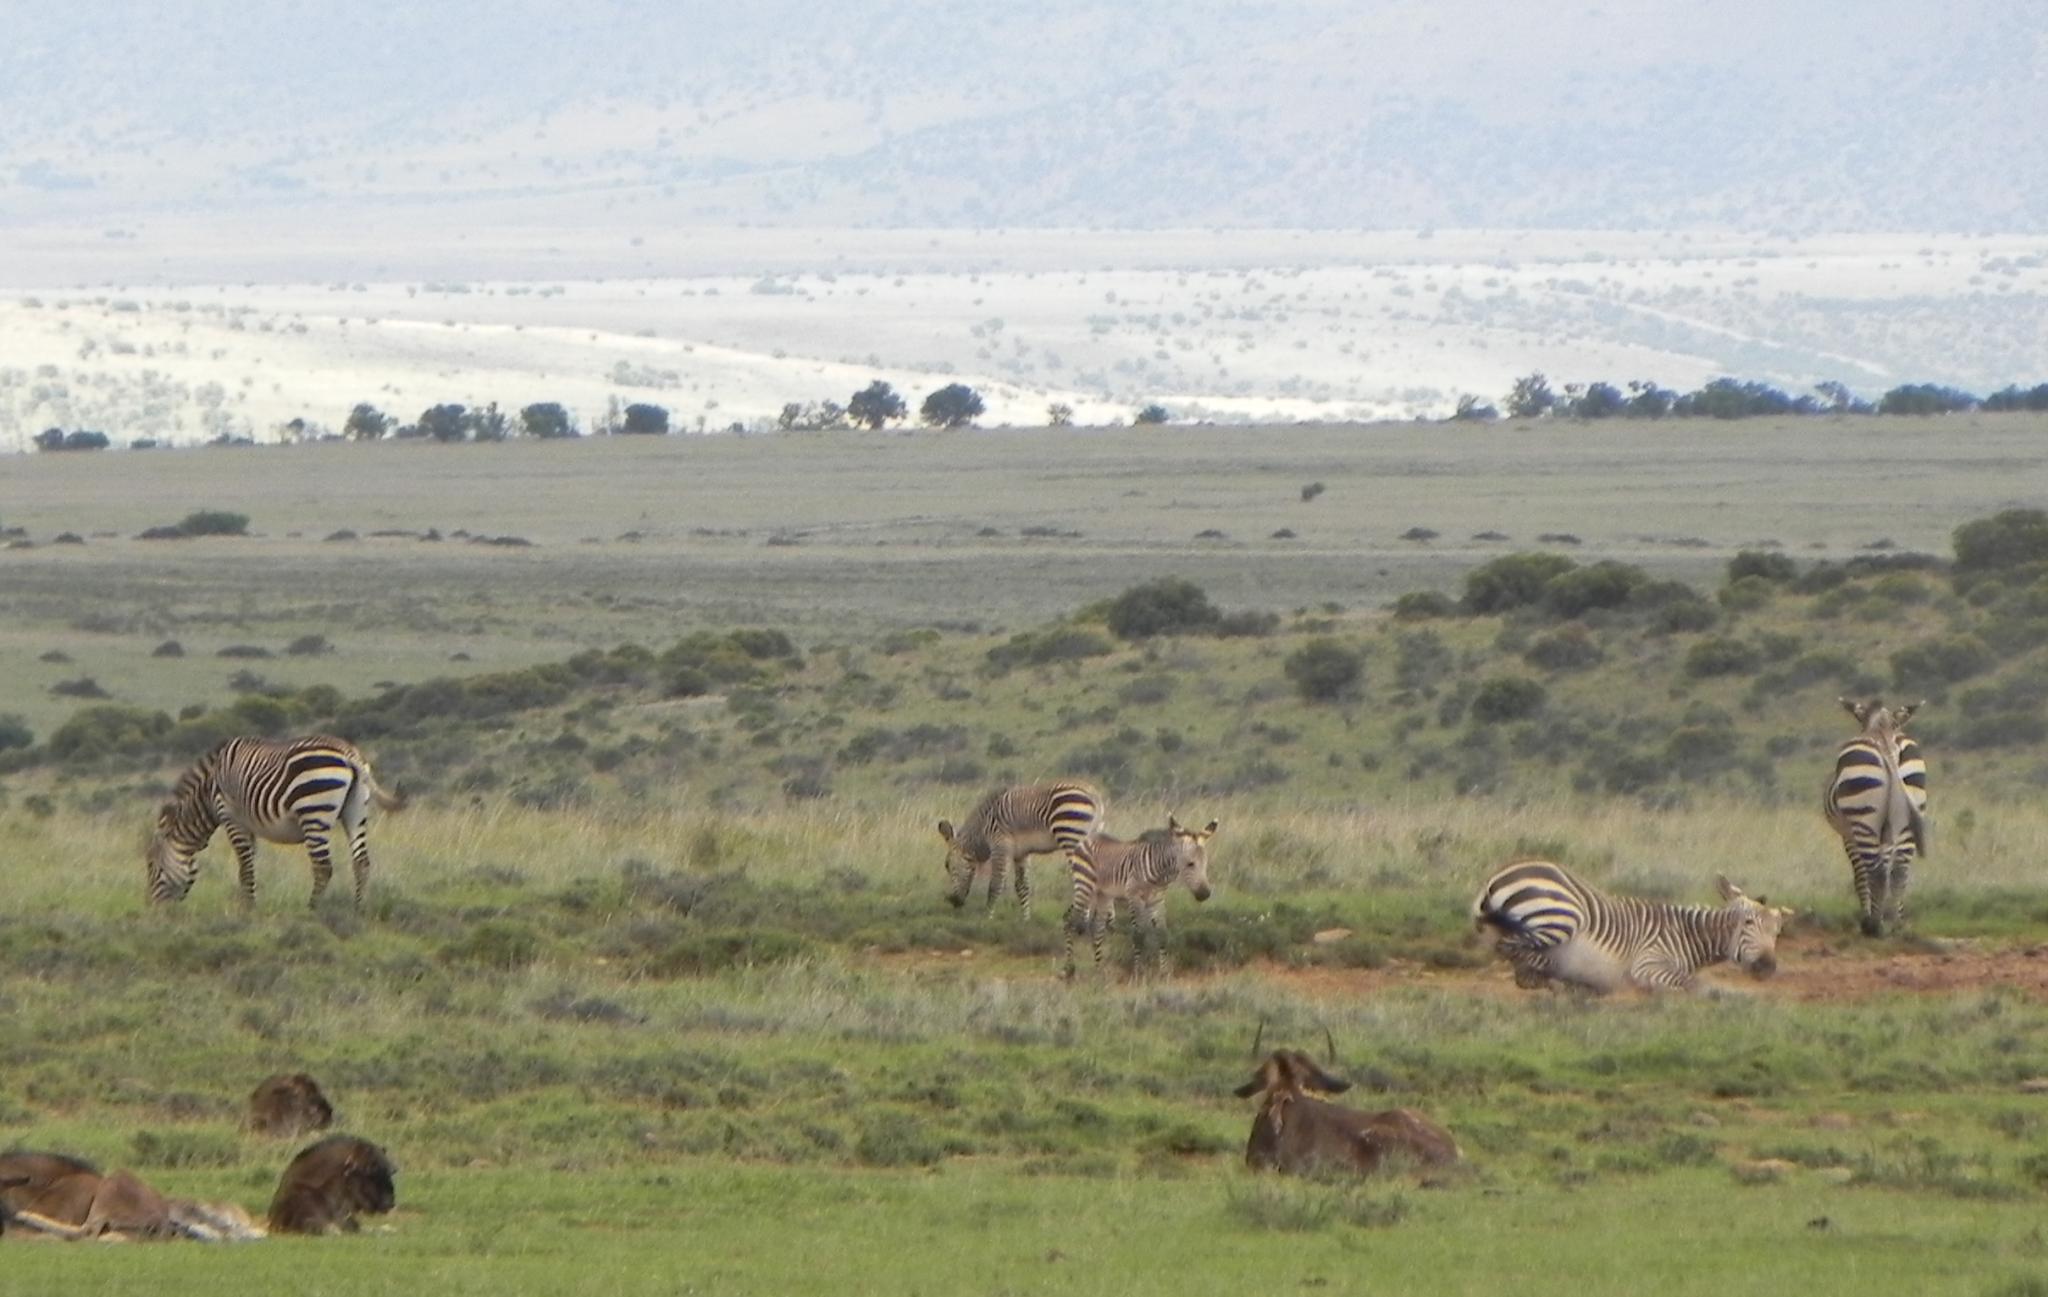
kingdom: Animalia
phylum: Chordata
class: Mammalia
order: Perissodactyla
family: Equidae
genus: Equus
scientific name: Equus zebra
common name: Mountain zebra
